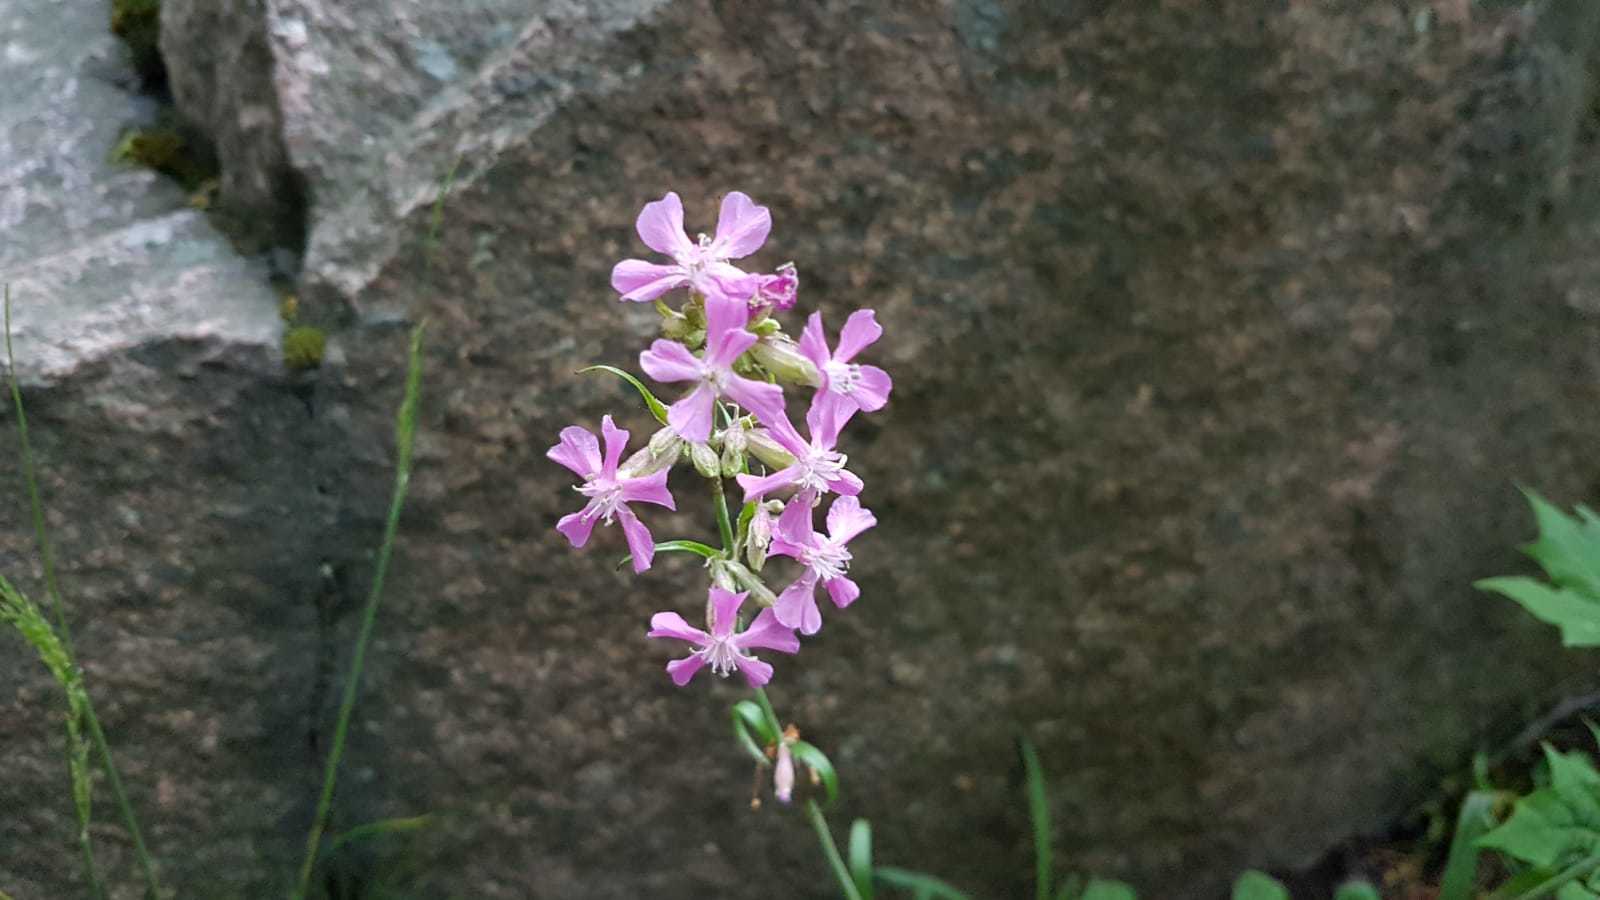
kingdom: Plantae
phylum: Tracheophyta
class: Magnoliopsida
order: Caryophyllales
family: Caryophyllaceae
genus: Viscaria
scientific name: Viscaria vulgaris
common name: Clammy campion
